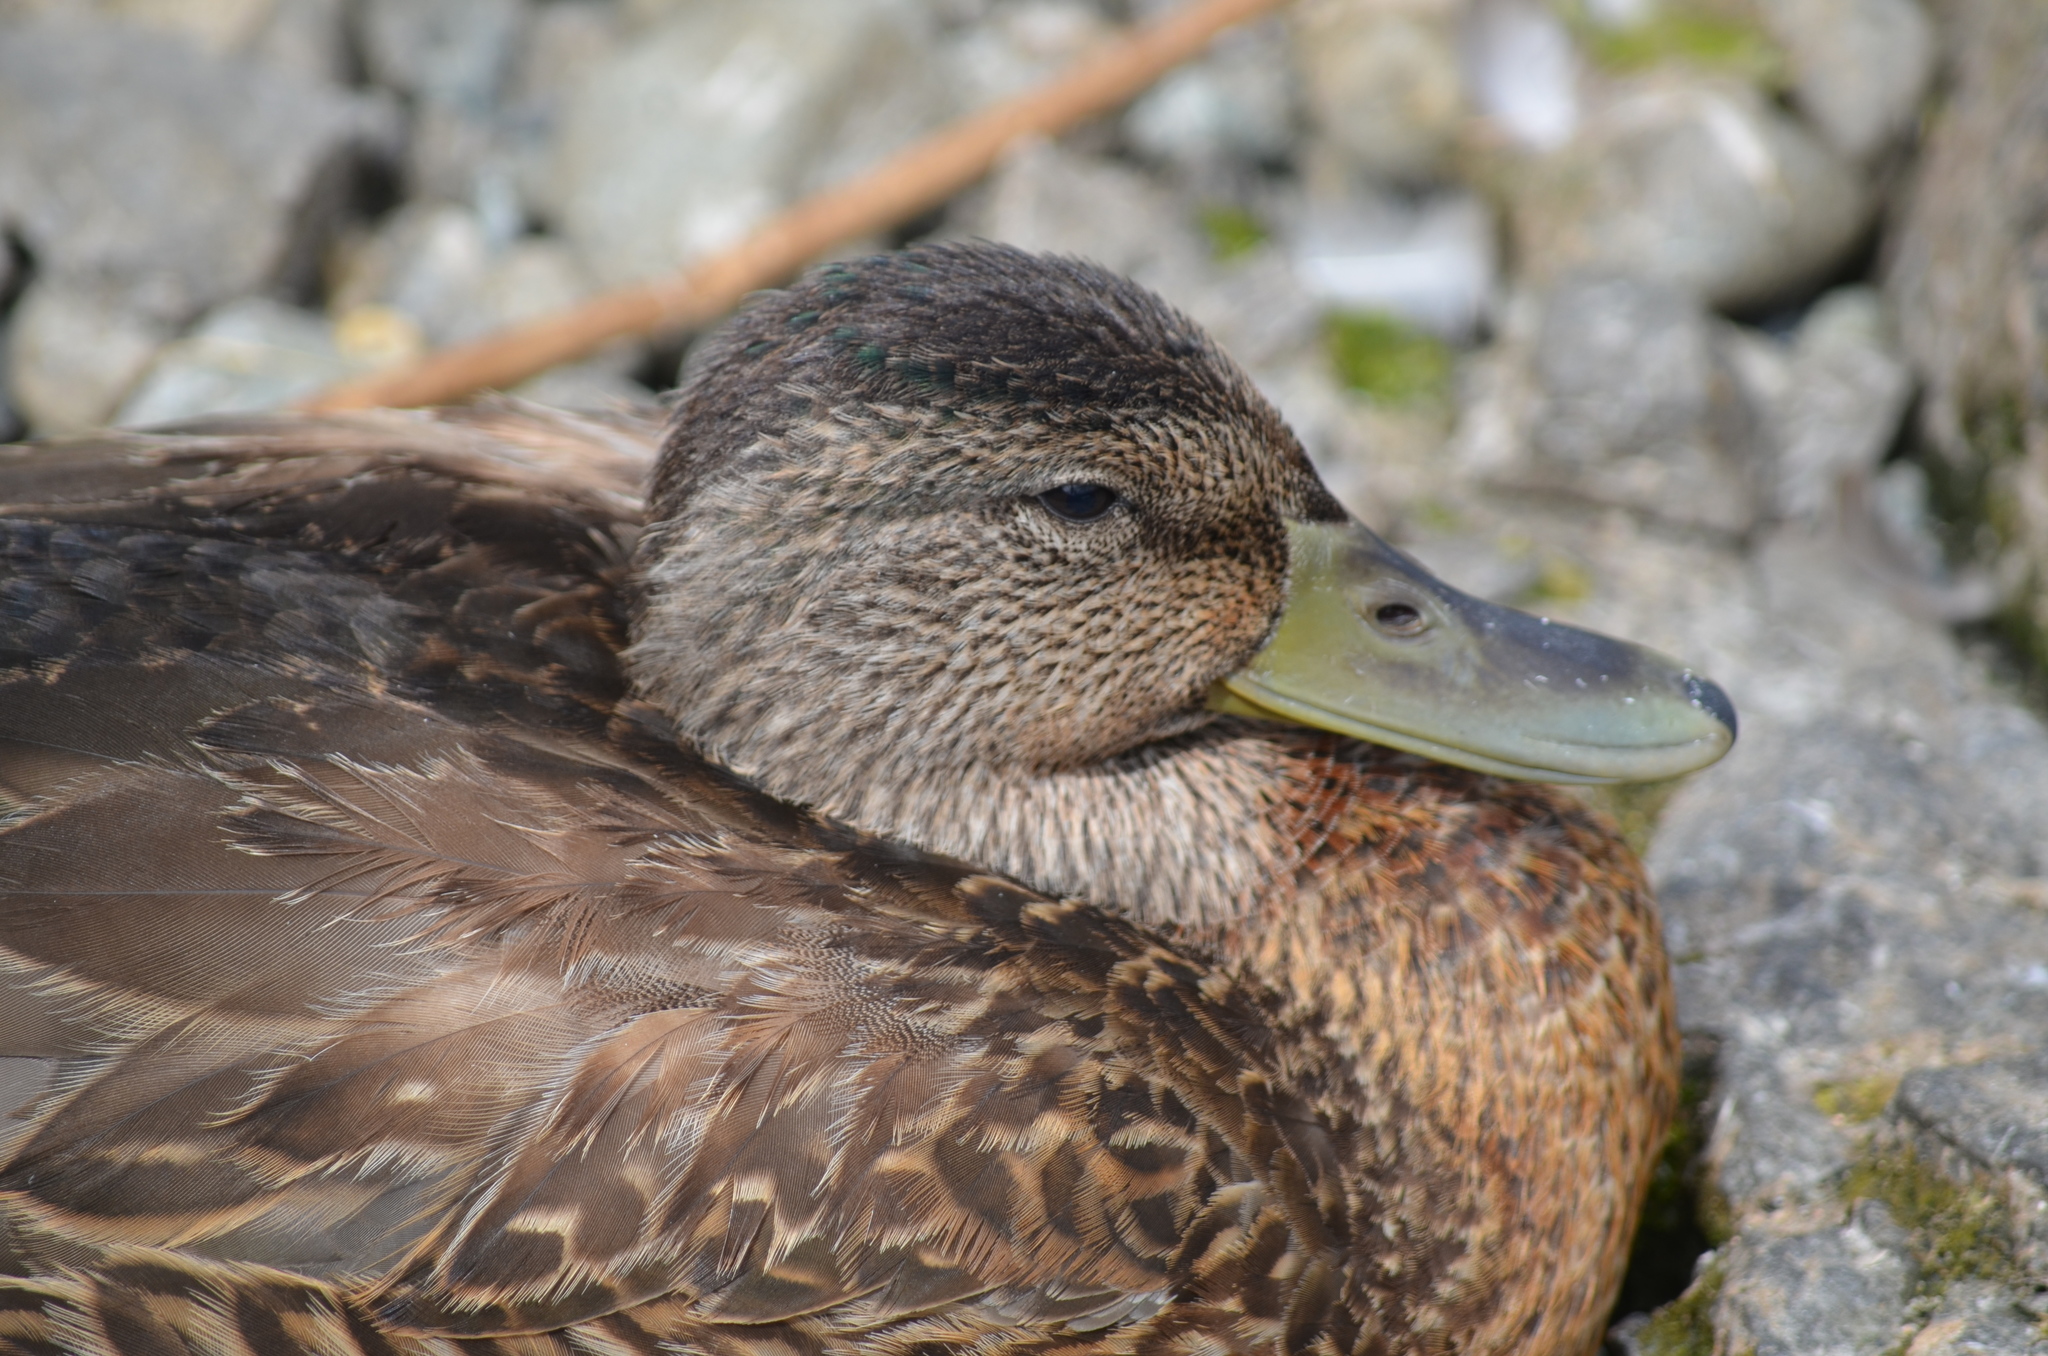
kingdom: Animalia
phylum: Chordata
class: Aves
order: Anseriformes
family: Anatidae
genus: Anas
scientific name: Anas platyrhynchos
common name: Mallard
